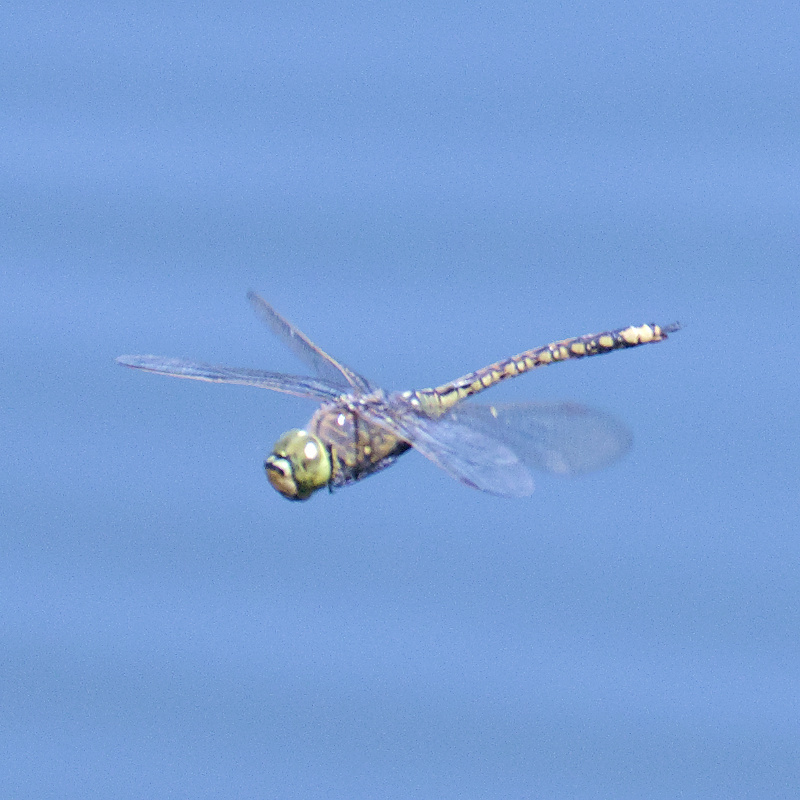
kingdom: Animalia
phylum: Arthropoda
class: Insecta
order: Odonata
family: Aeshnidae
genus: Anax
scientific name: Anax papuensis
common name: Australian emperor
